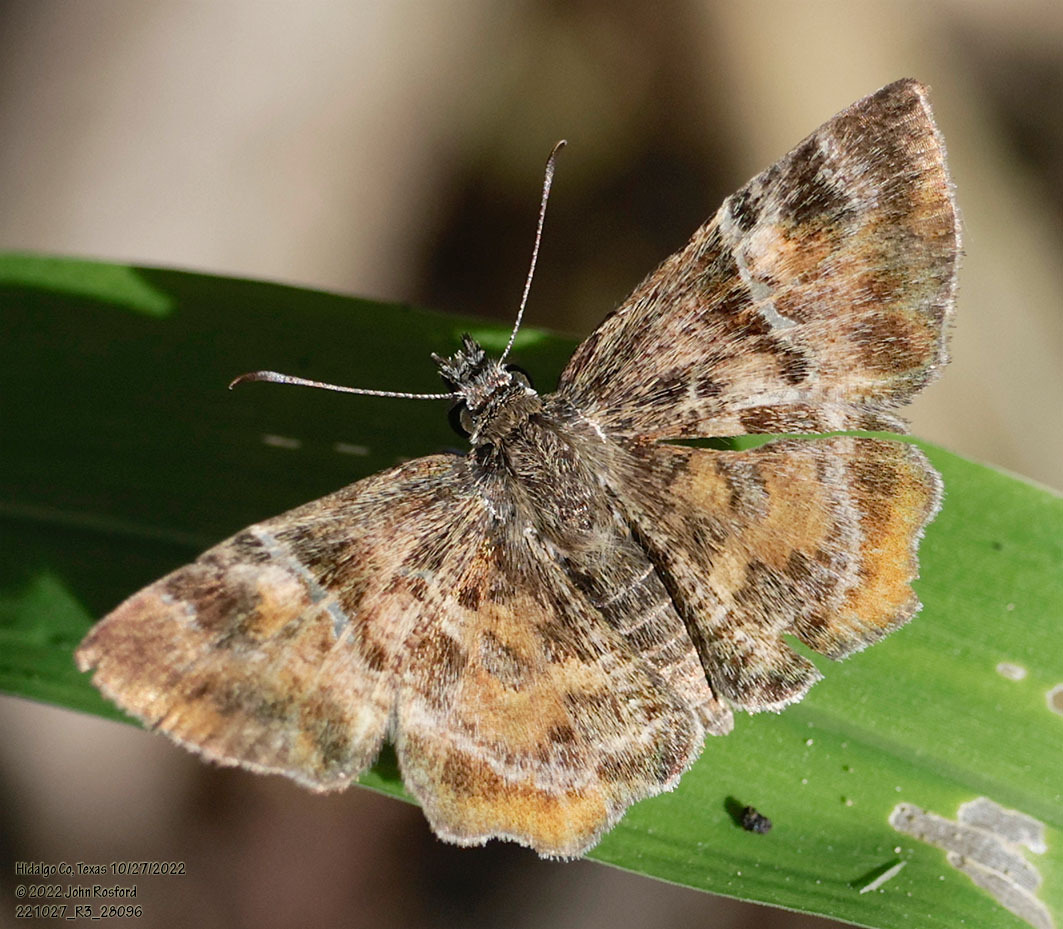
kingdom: Animalia
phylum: Arthropoda
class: Insecta
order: Lepidoptera
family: Hesperiidae
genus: Systasea
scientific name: Systasea pulverulenta
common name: Texas powdered skipper
